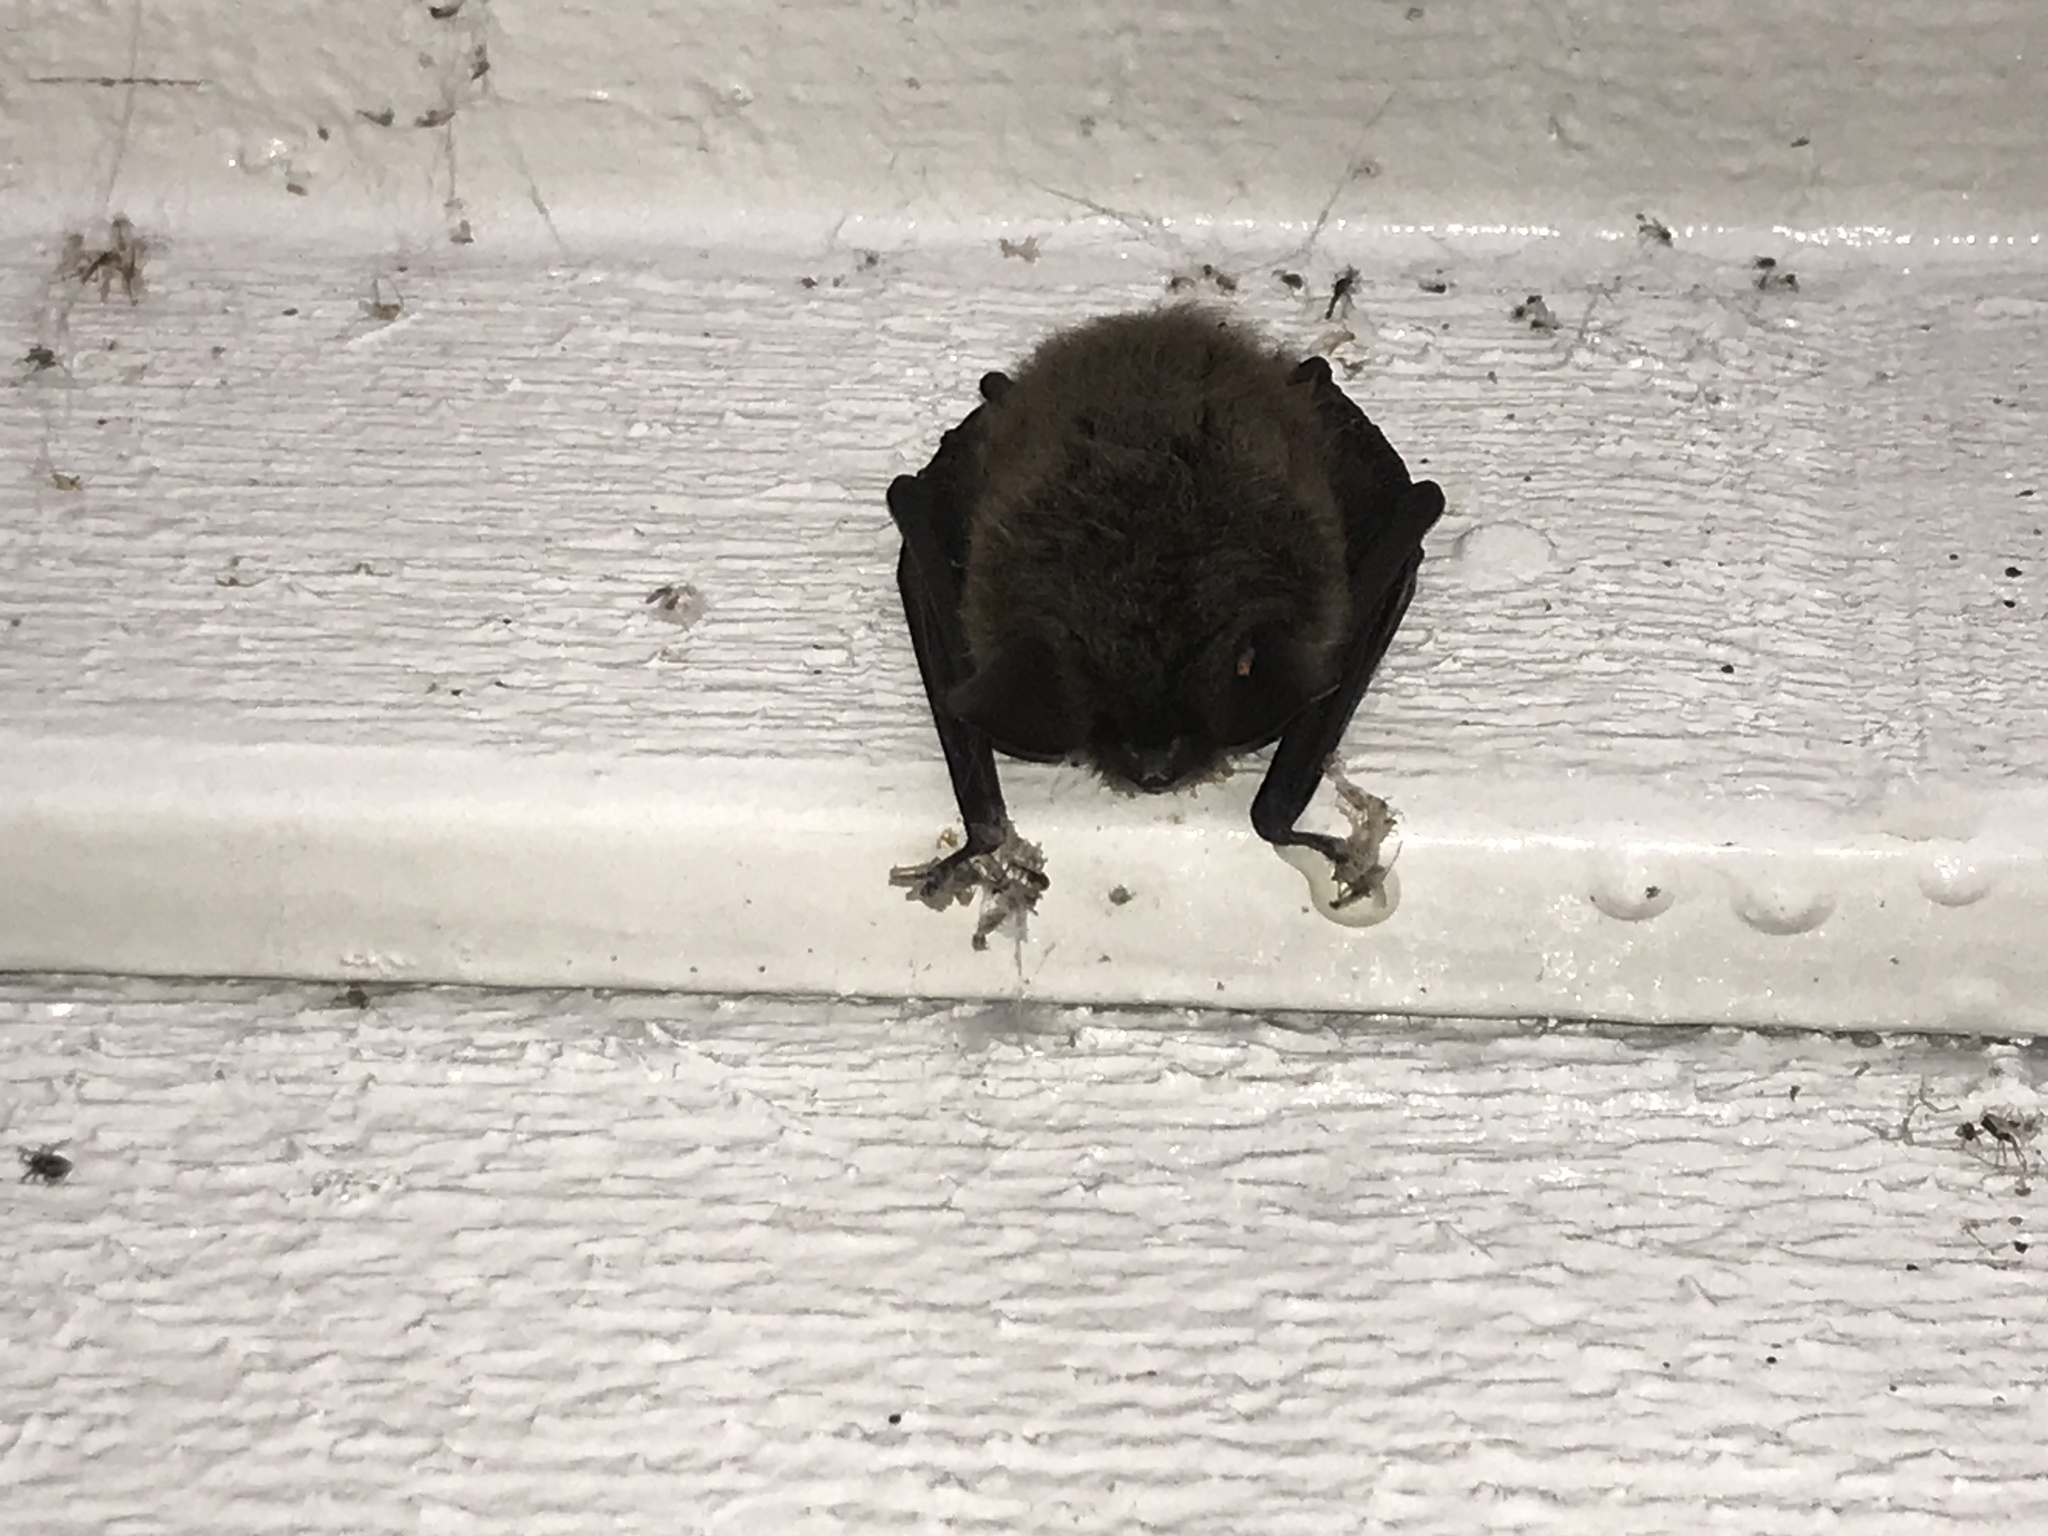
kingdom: Animalia
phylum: Chordata
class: Mammalia
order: Chiroptera
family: Vespertilionidae
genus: Myotis
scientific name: Myotis evotis
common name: Long-eared myotis
